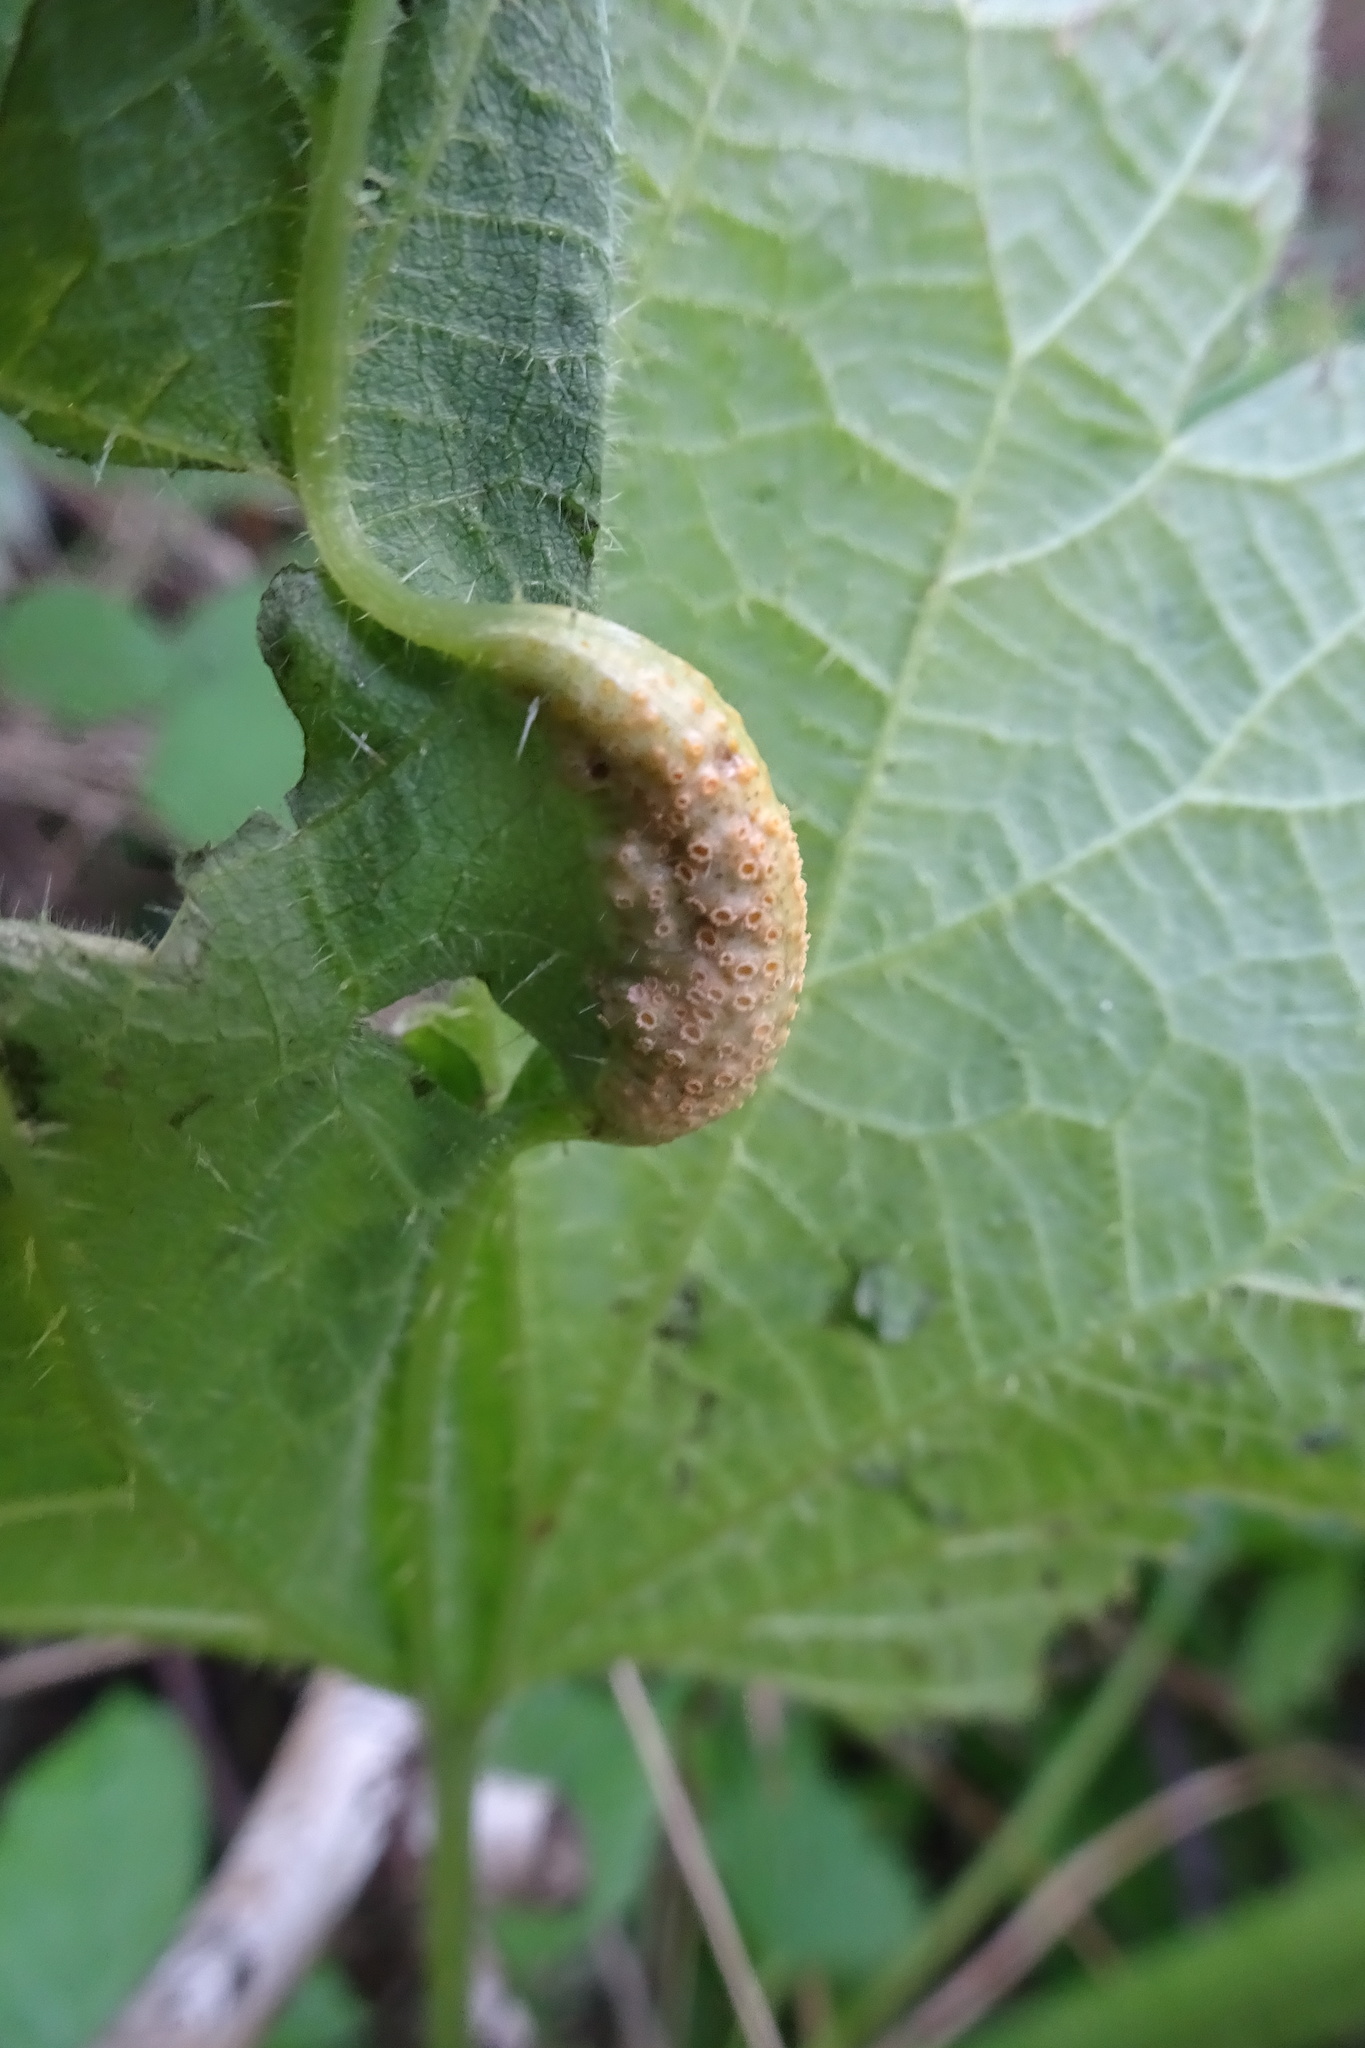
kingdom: Fungi
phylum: Basidiomycota
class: Pucciniomycetes
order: Pucciniales
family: Pucciniaceae
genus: Puccinia
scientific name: Puccinia urticata
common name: Nettle clustercup rust fungus
